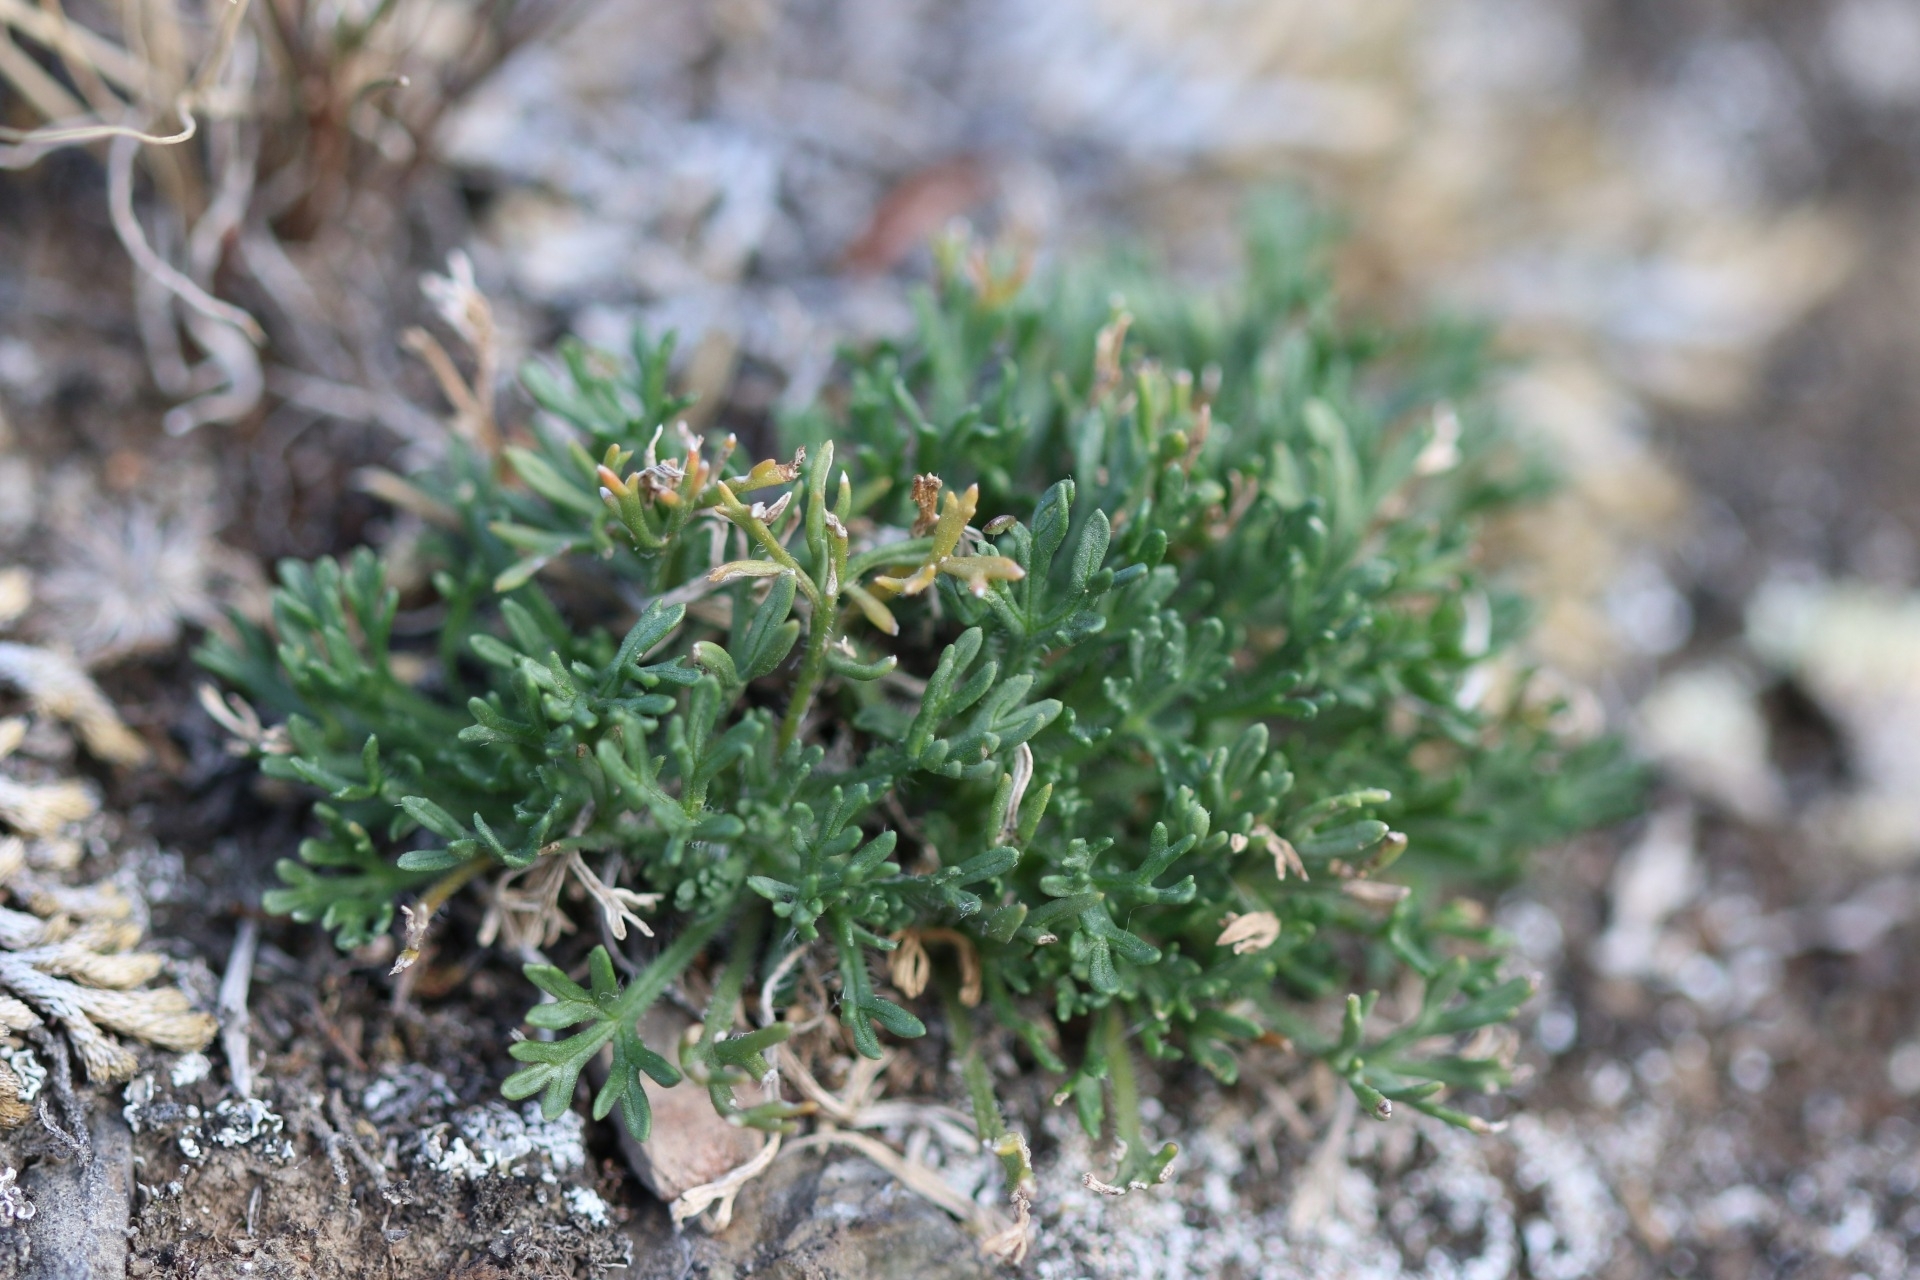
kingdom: Plantae
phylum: Tracheophyta
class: Magnoliopsida
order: Asterales
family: Asteraceae
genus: Erigeron
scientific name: Erigeron compositus
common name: Dwarf mountain fleabane
